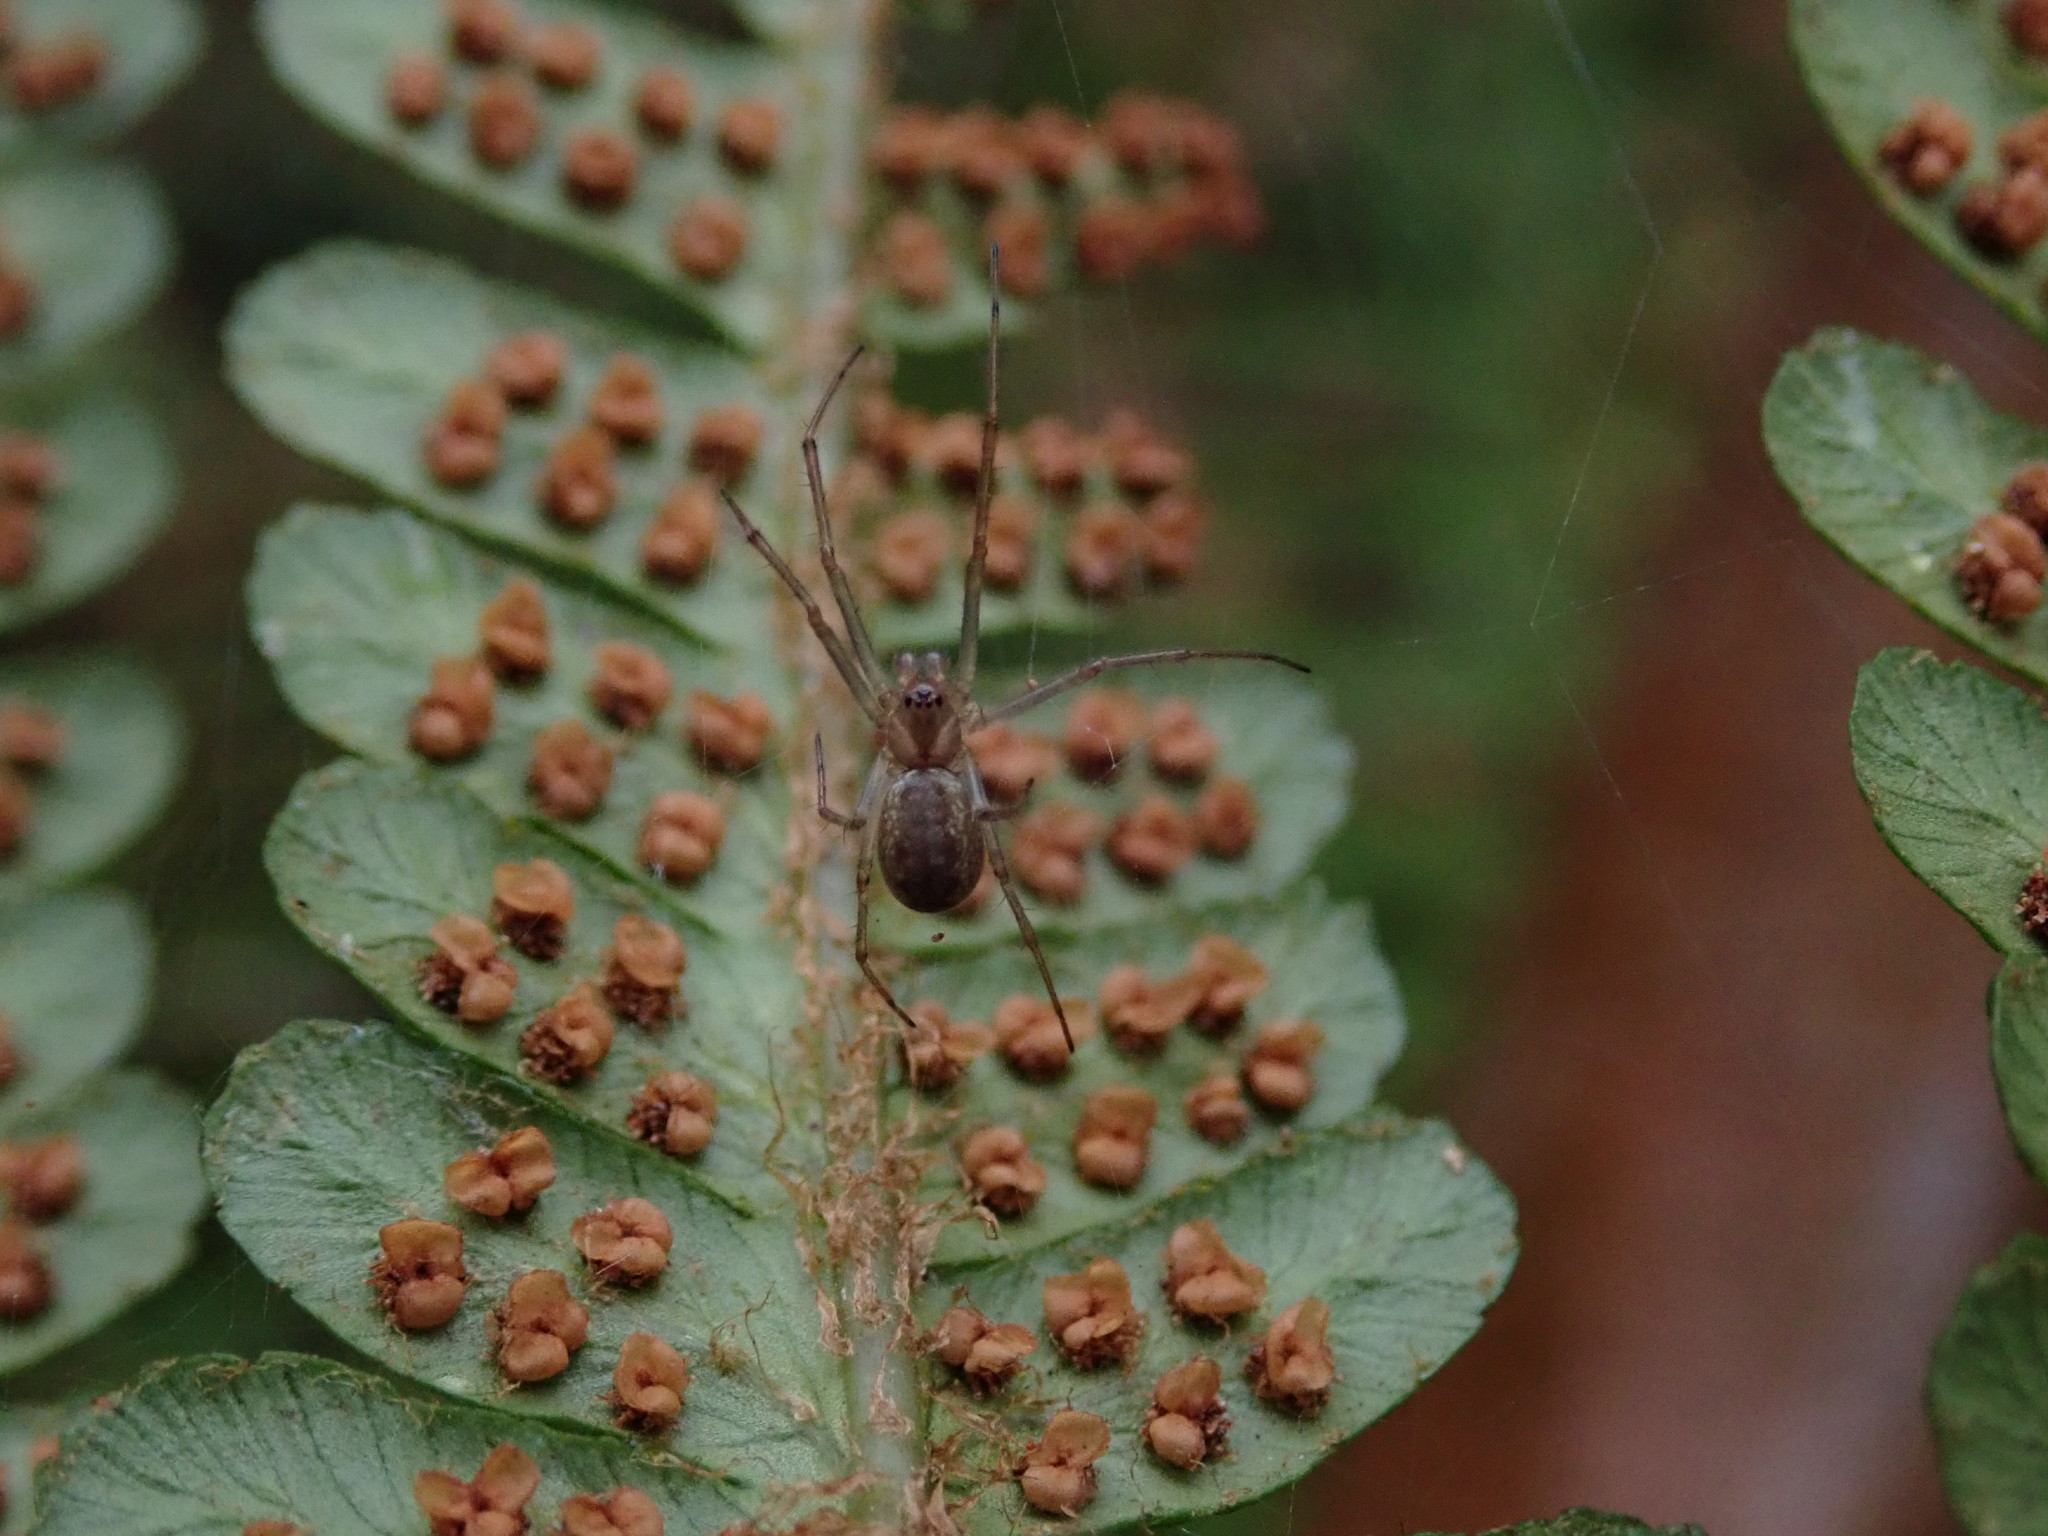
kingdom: Animalia
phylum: Arthropoda
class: Arachnida
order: Araneae
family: Linyphiidae
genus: Neriene
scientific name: Neriene peltata
